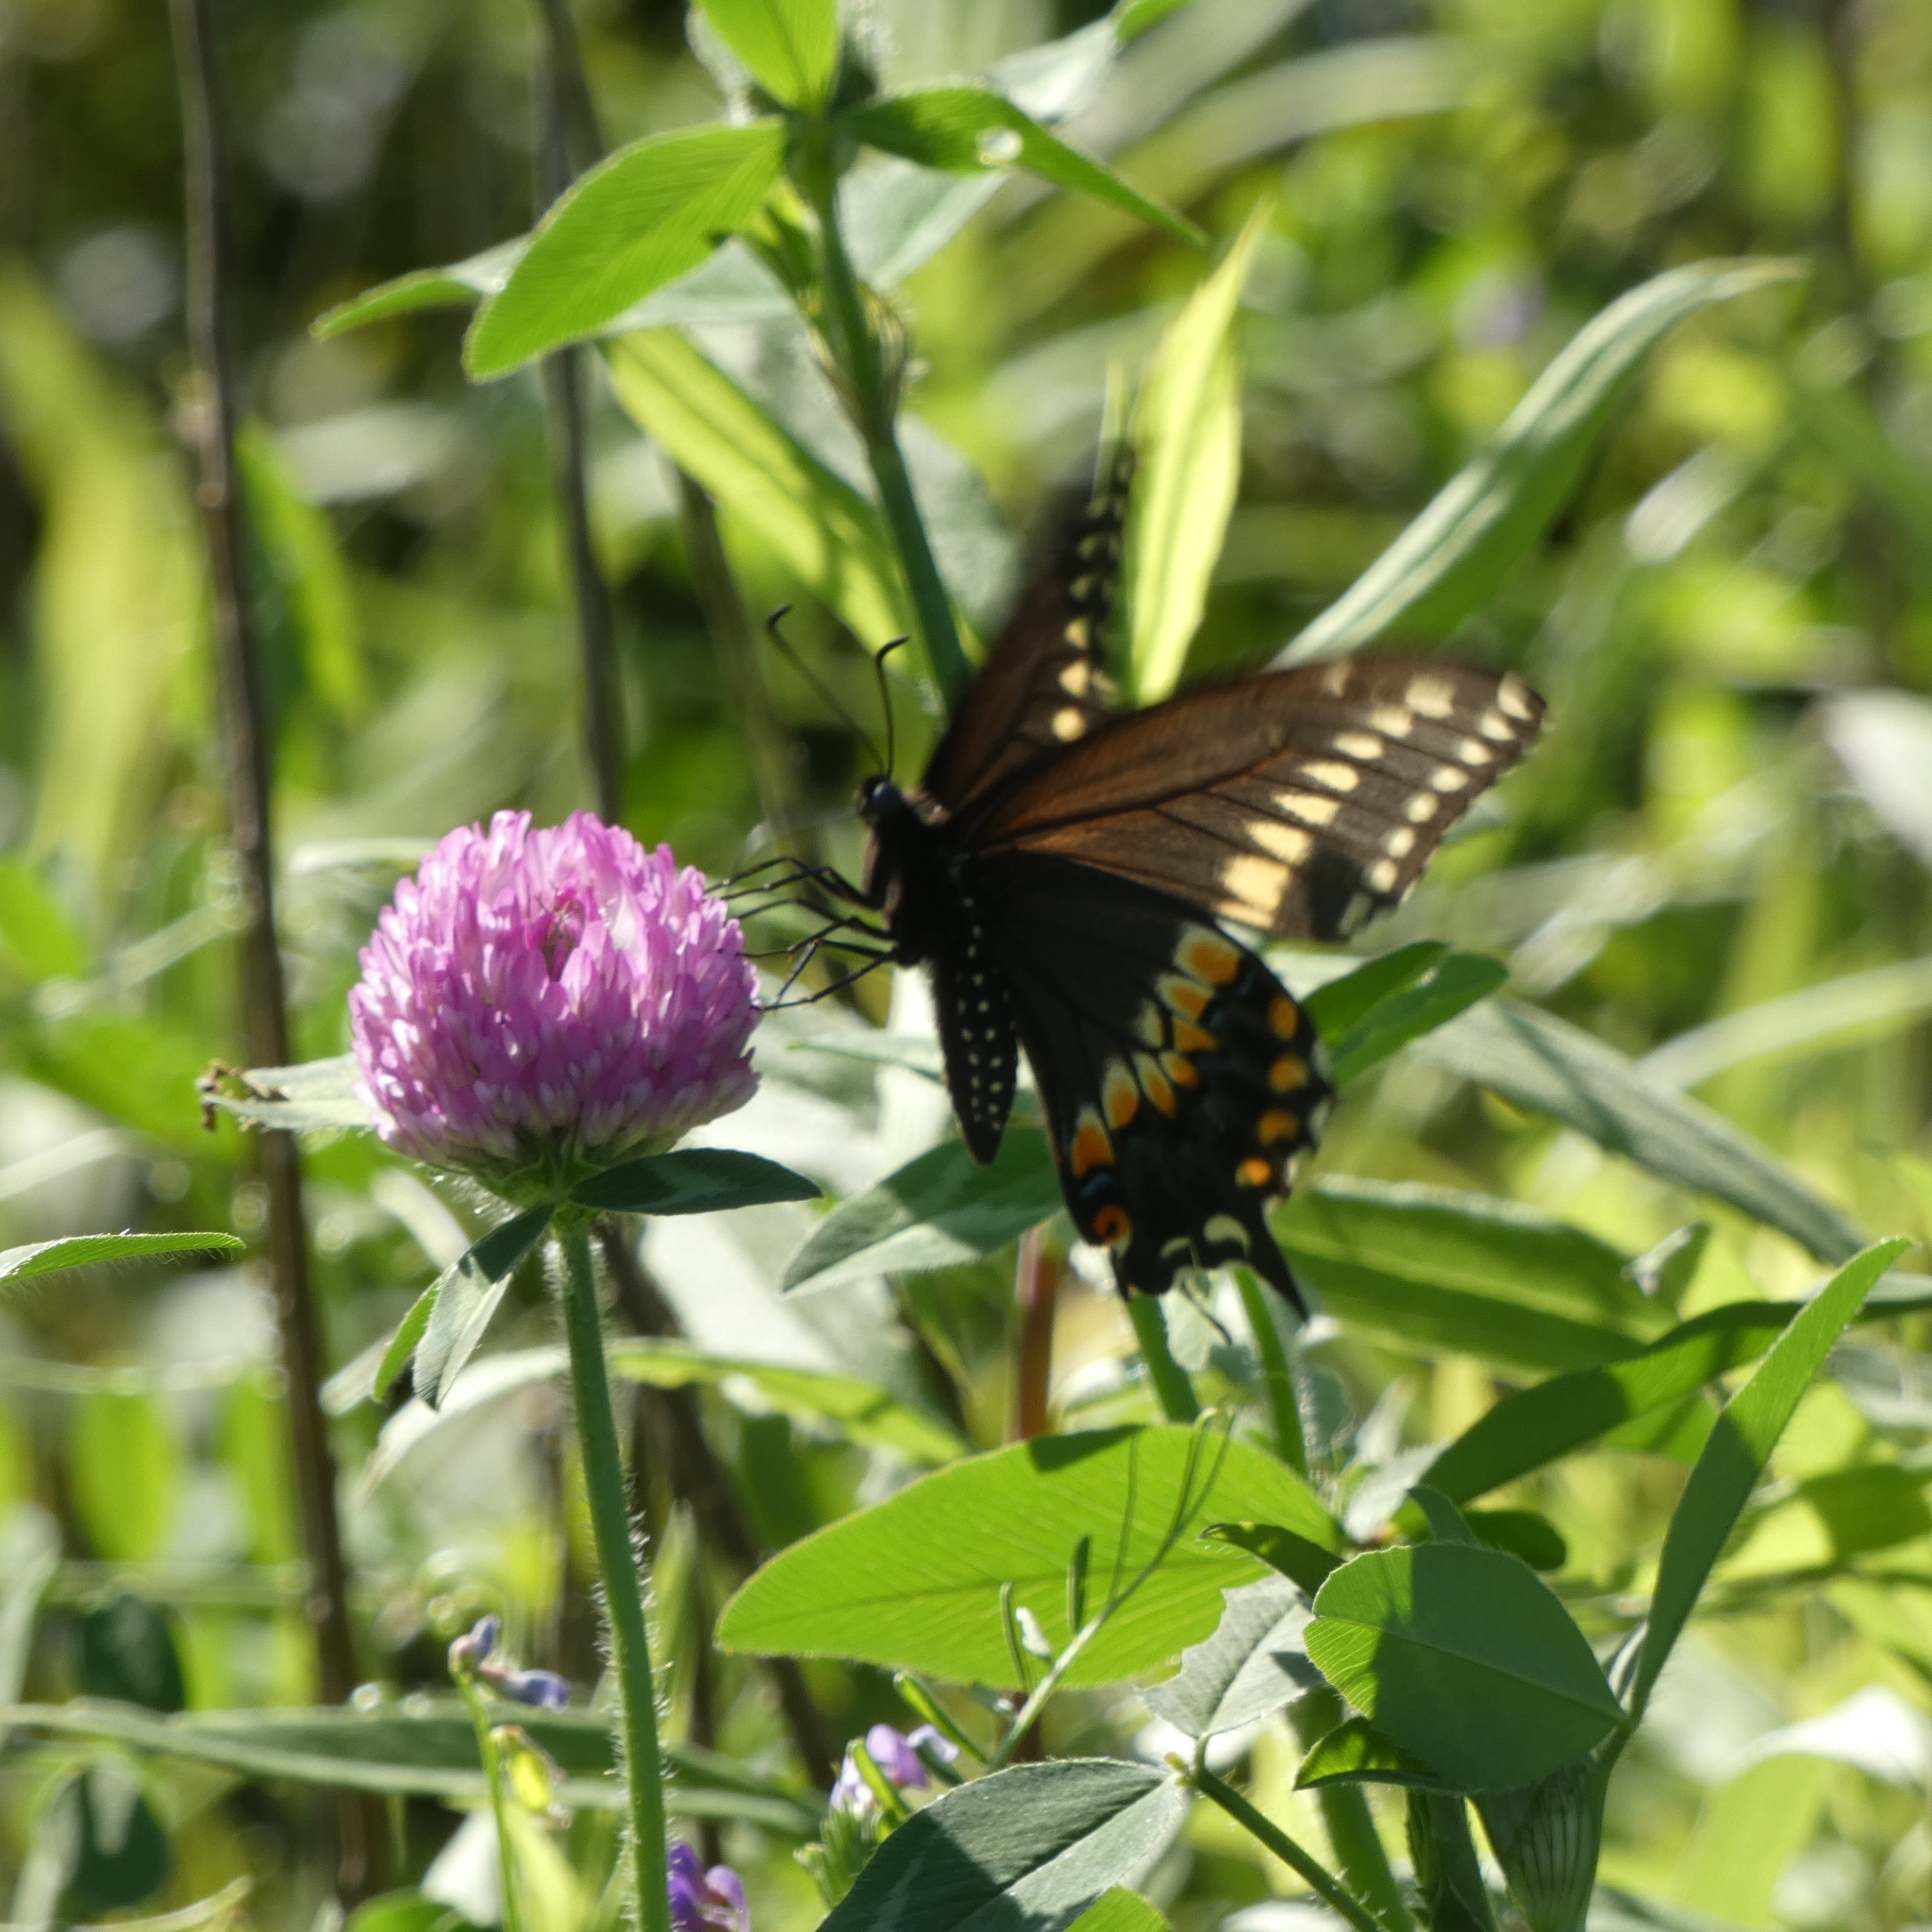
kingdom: Animalia
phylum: Arthropoda
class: Insecta
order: Lepidoptera
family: Papilionidae
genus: Papilio
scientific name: Papilio polyxenes
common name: Black swallowtail
